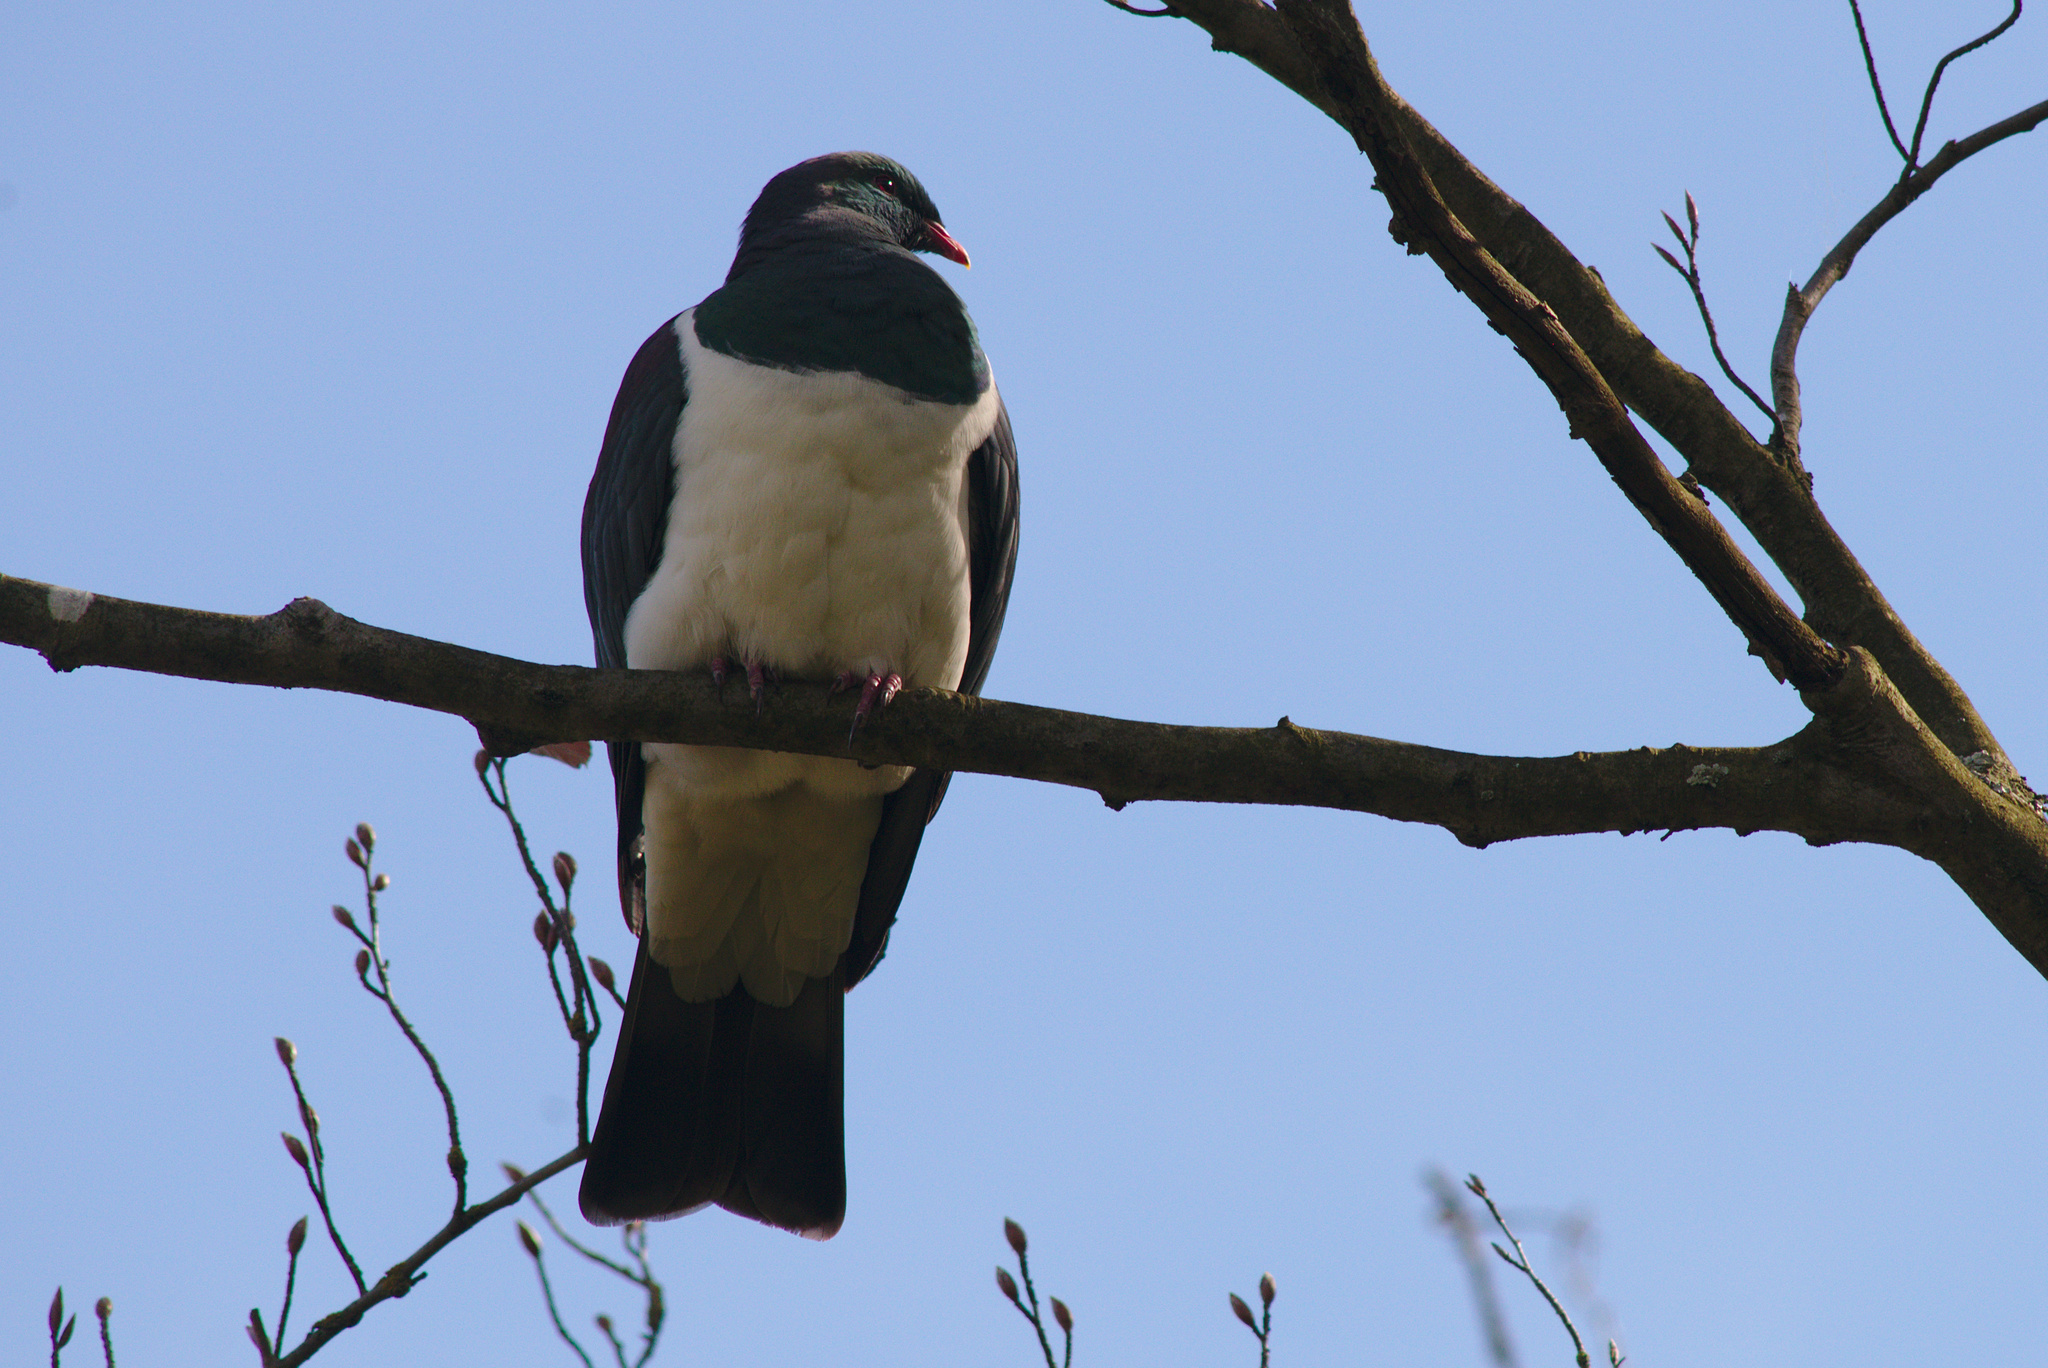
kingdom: Animalia
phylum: Chordata
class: Aves
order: Columbiformes
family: Columbidae
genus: Hemiphaga
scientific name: Hemiphaga novaeseelandiae
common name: New zealand pigeon
